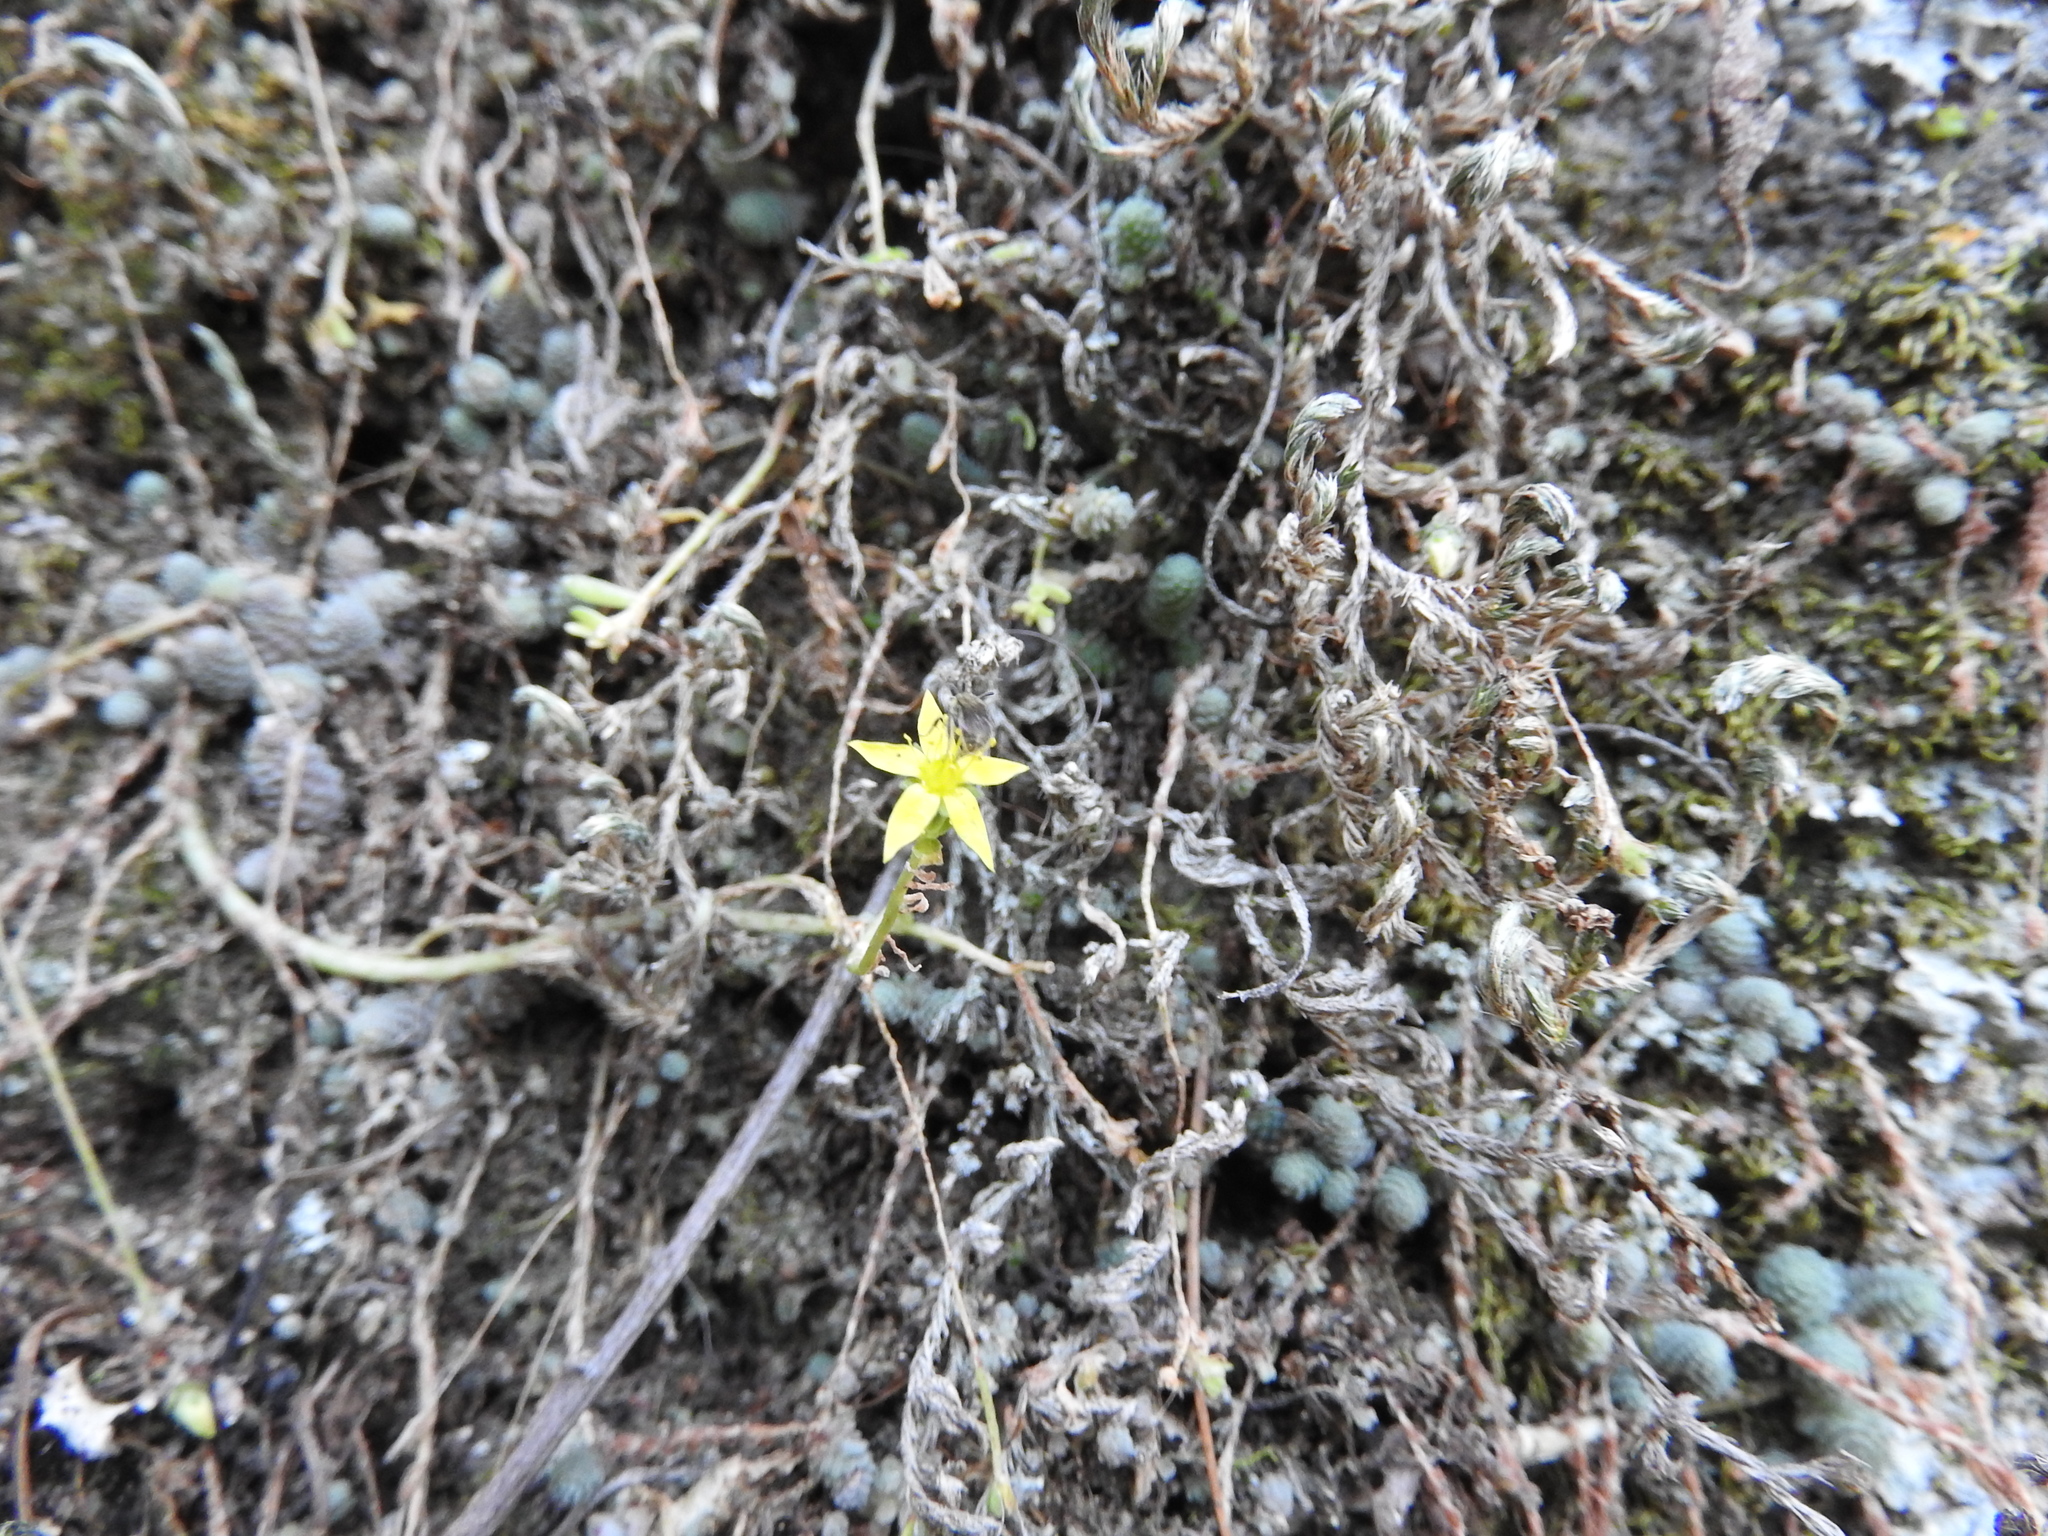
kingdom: Plantae
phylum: Tracheophyta
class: Magnoliopsida
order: Saxifragales
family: Crassulaceae
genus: Sedum
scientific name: Sedum greggii
